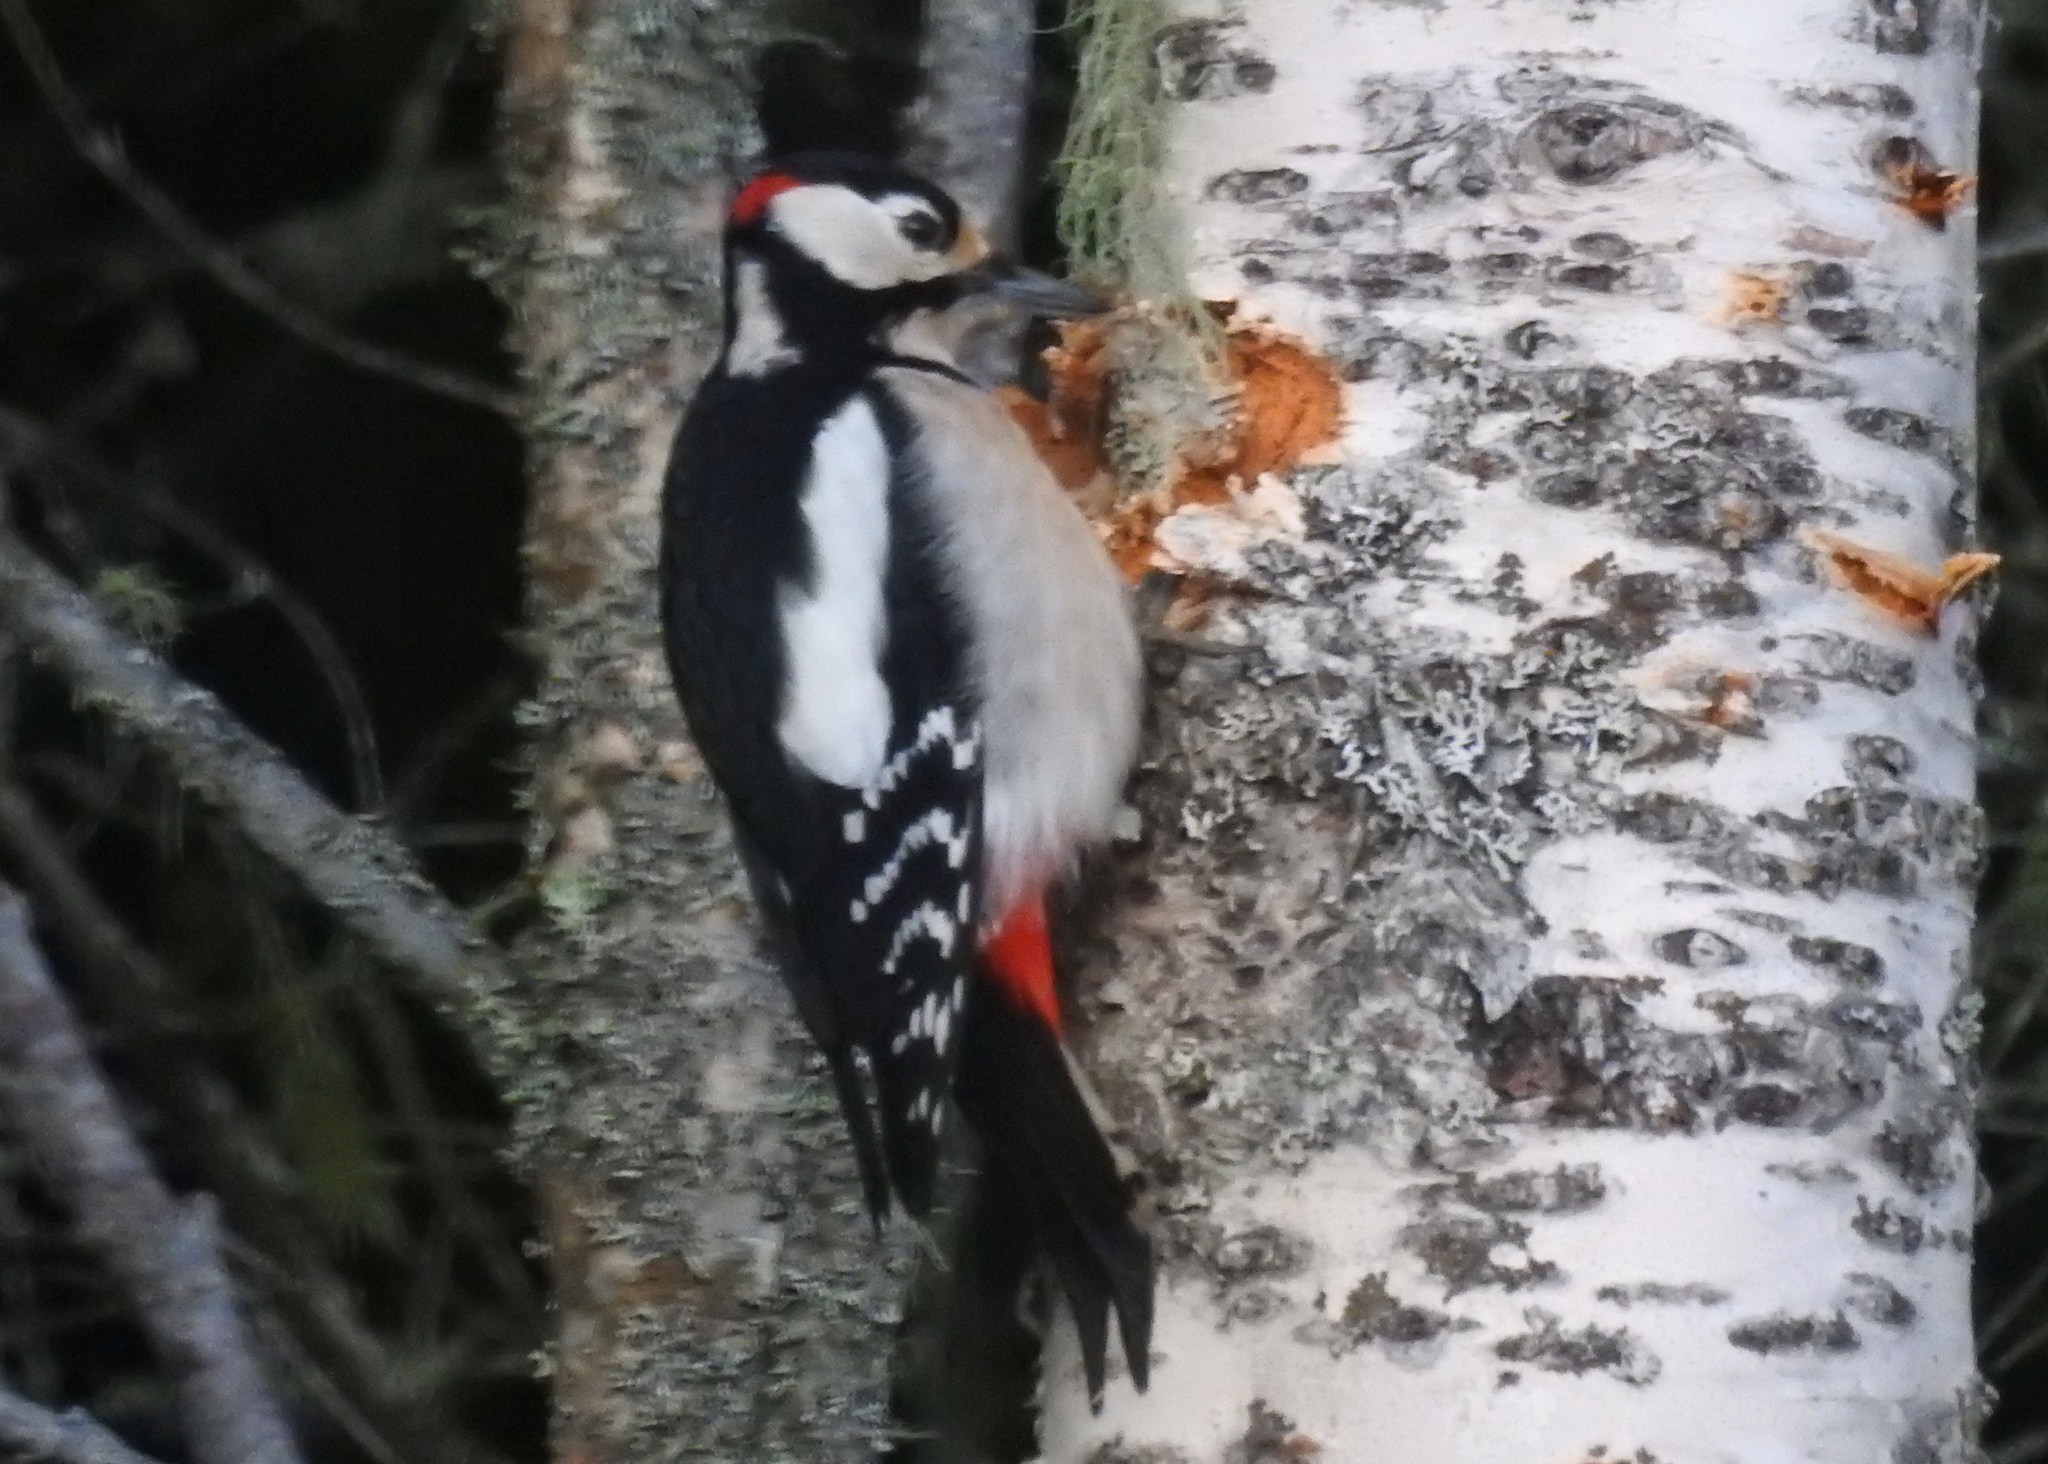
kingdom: Animalia
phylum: Chordata
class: Aves
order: Piciformes
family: Picidae
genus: Dendrocopos
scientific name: Dendrocopos major
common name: Great spotted woodpecker
